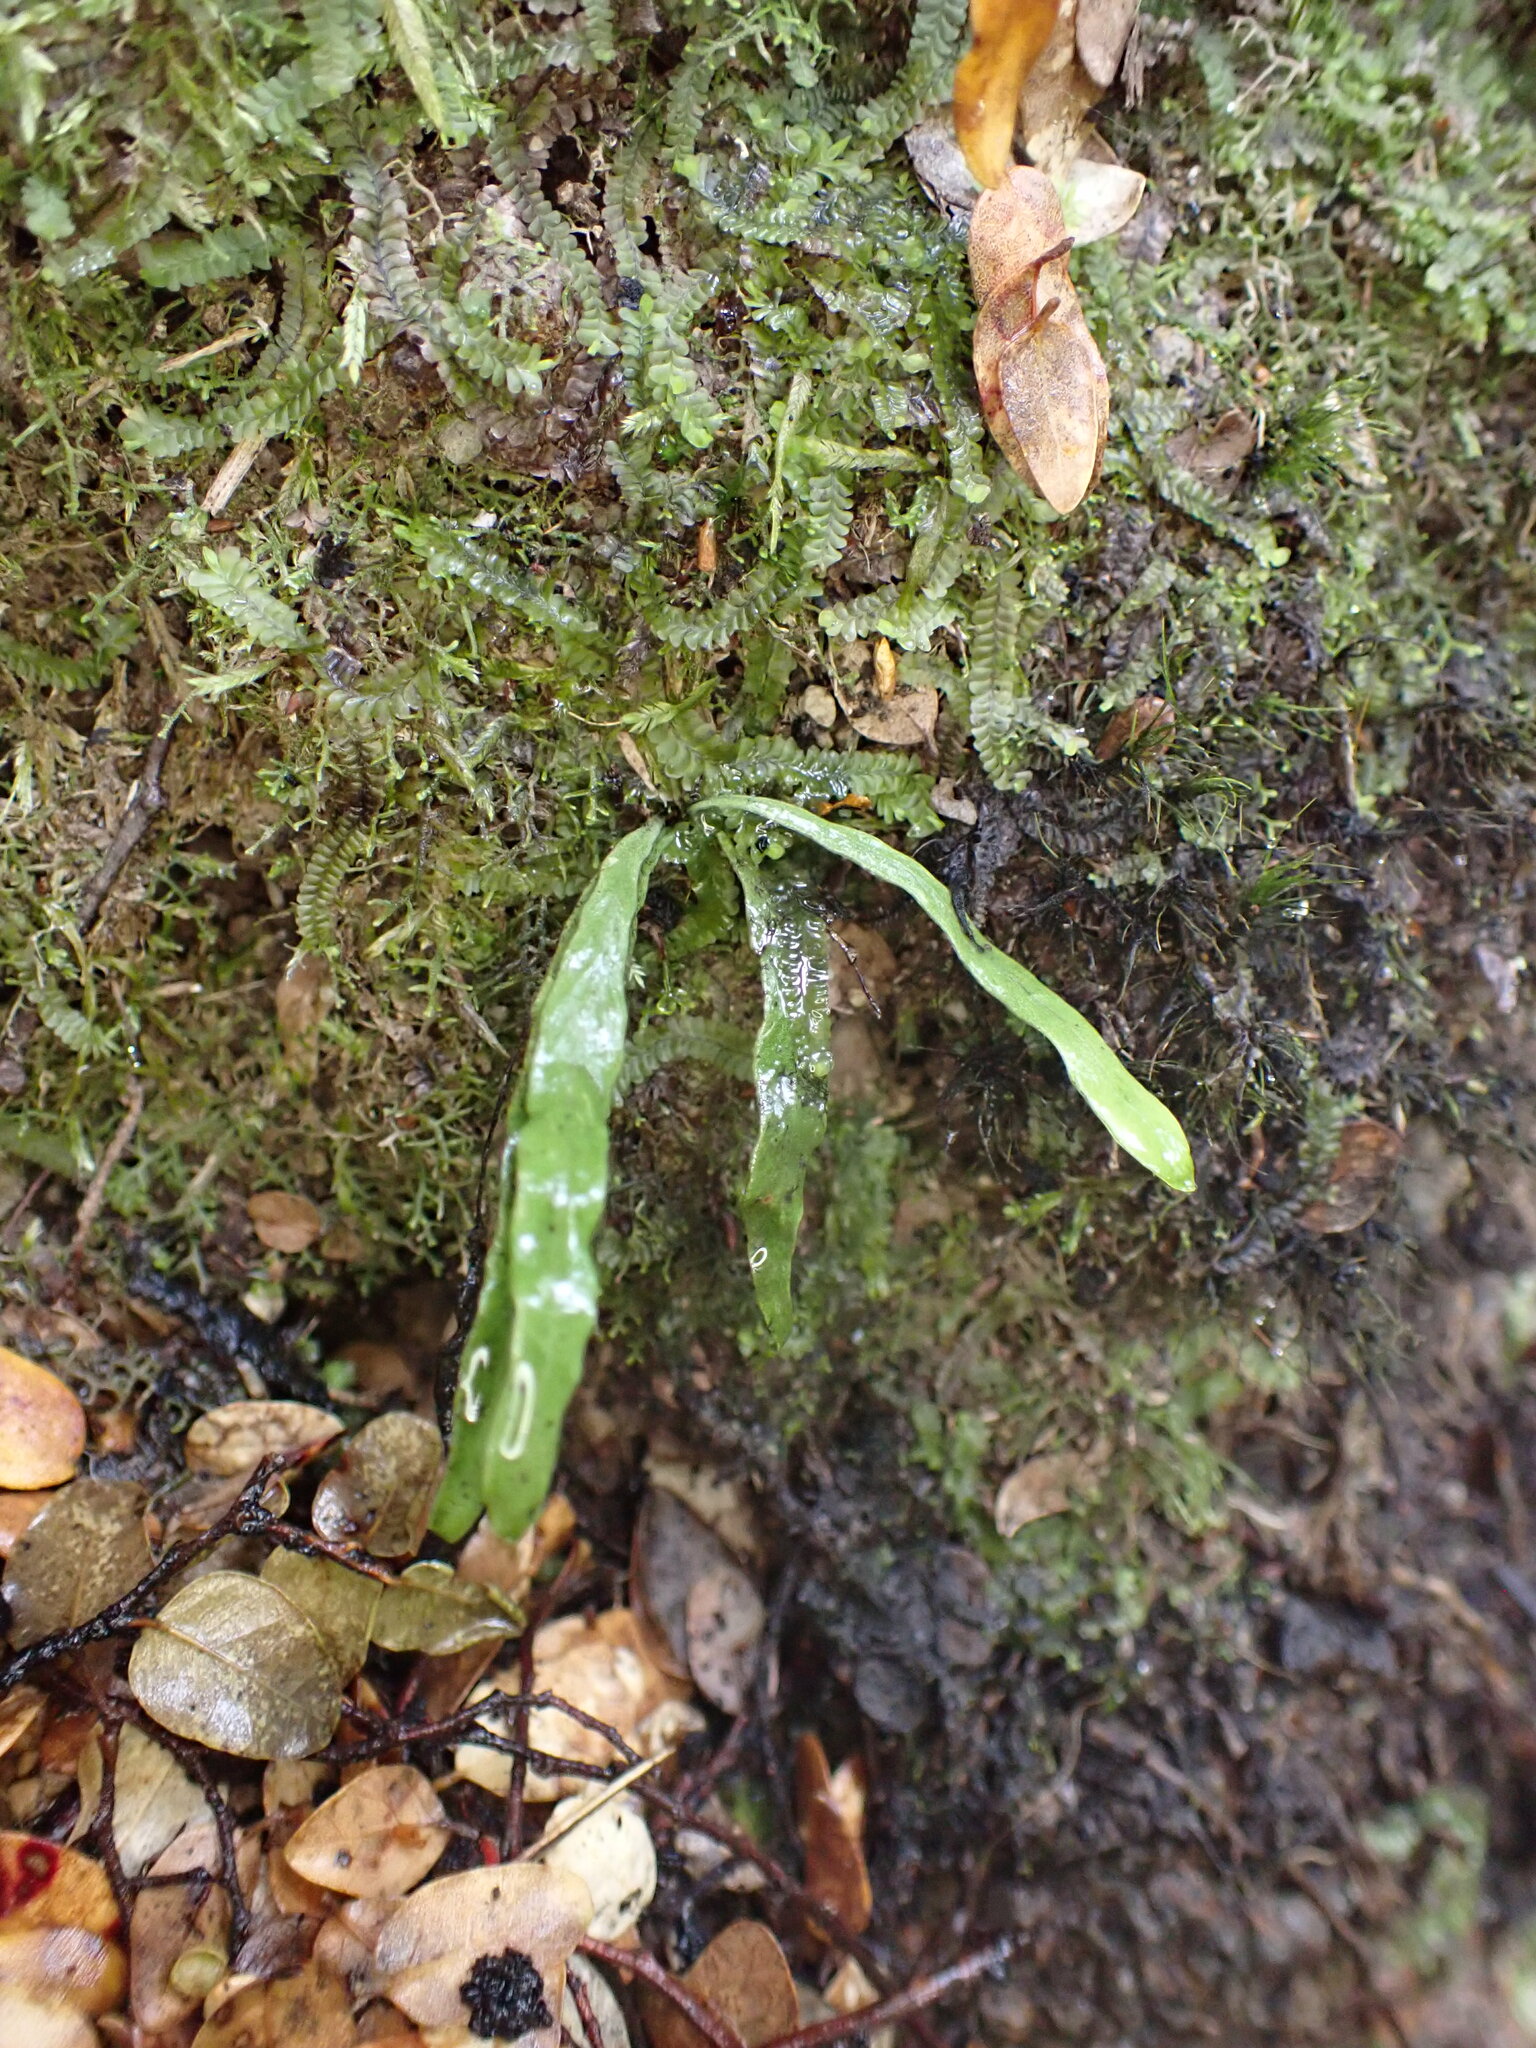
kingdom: Plantae
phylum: Tracheophyta
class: Polypodiopsida
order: Polypodiales
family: Polypodiaceae
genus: Notogrammitis
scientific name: Notogrammitis ciliata
